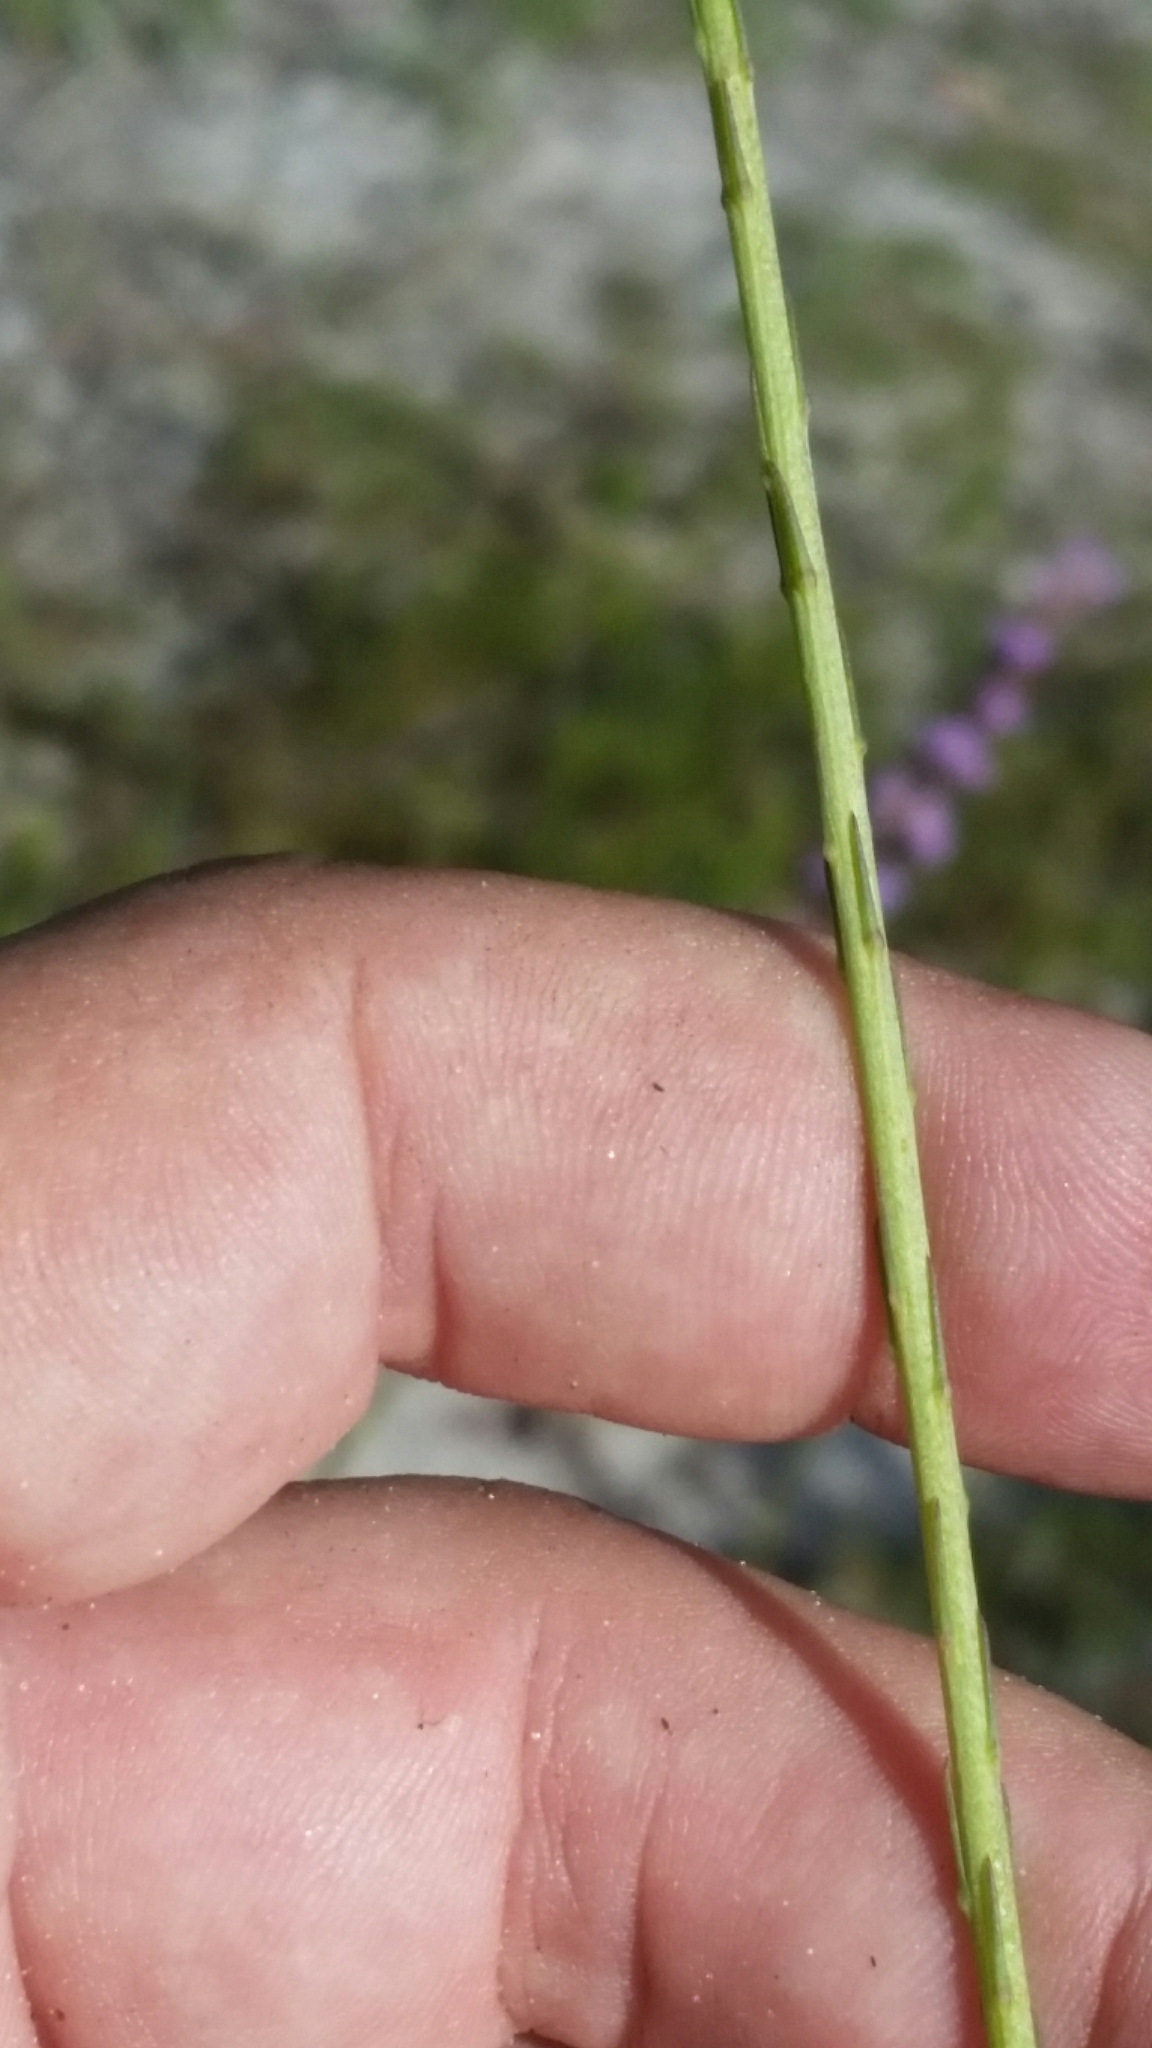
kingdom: Plantae
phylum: Tracheophyta
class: Magnoliopsida
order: Asterales
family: Asteraceae
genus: Liatris
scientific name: Liatris quadriflora
